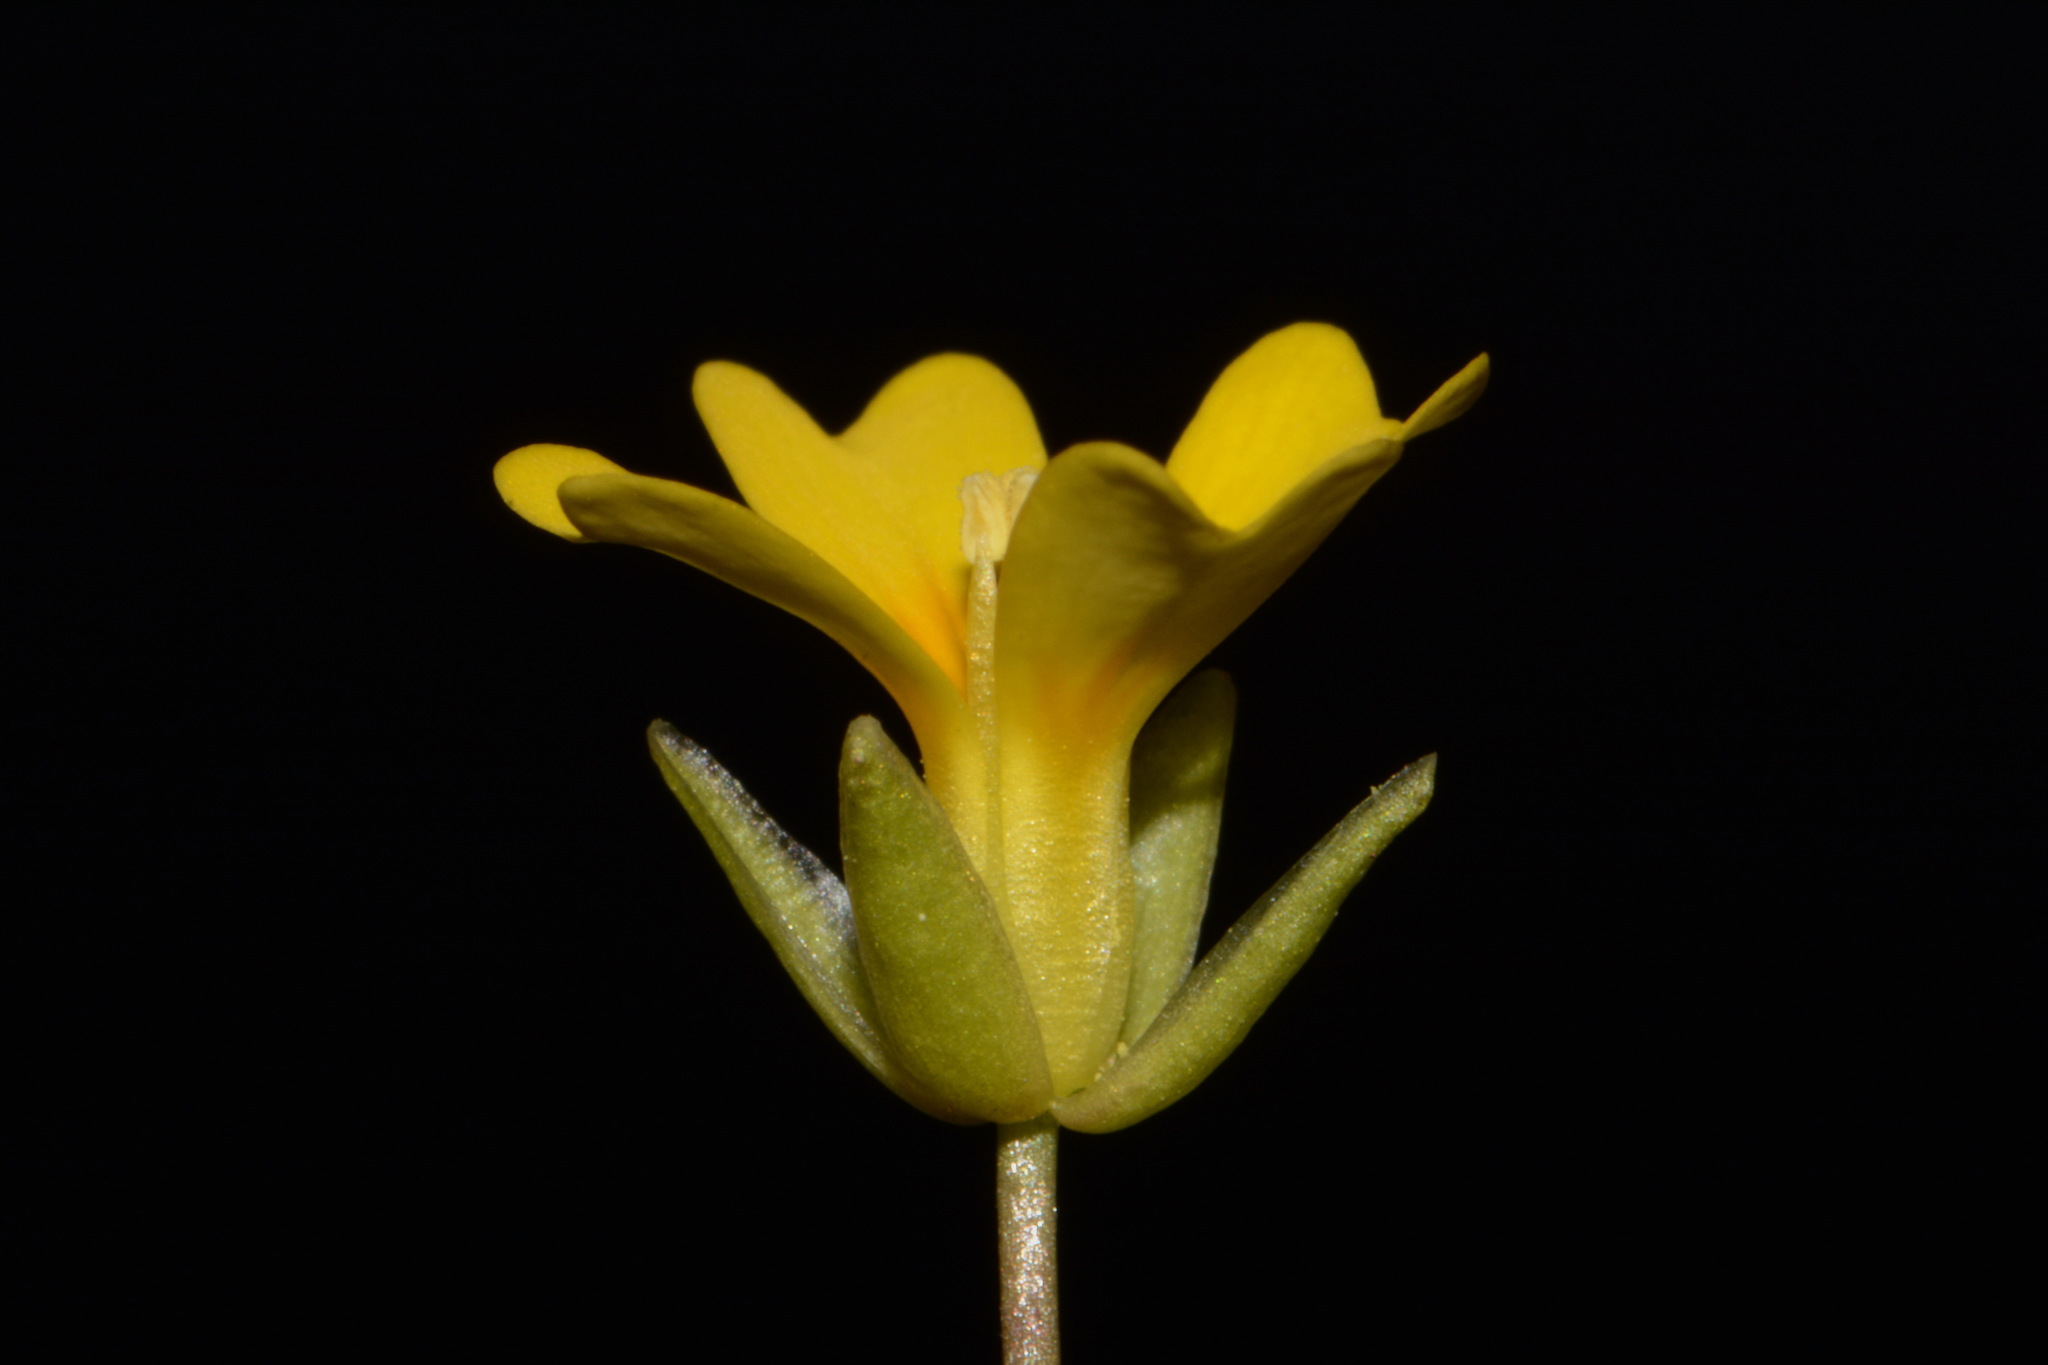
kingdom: Plantae
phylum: Tracheophyta
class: Magnoliopsida
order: Brassicales
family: Brassicaceae
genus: Leavenworthia
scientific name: Leavenworthia exigua
